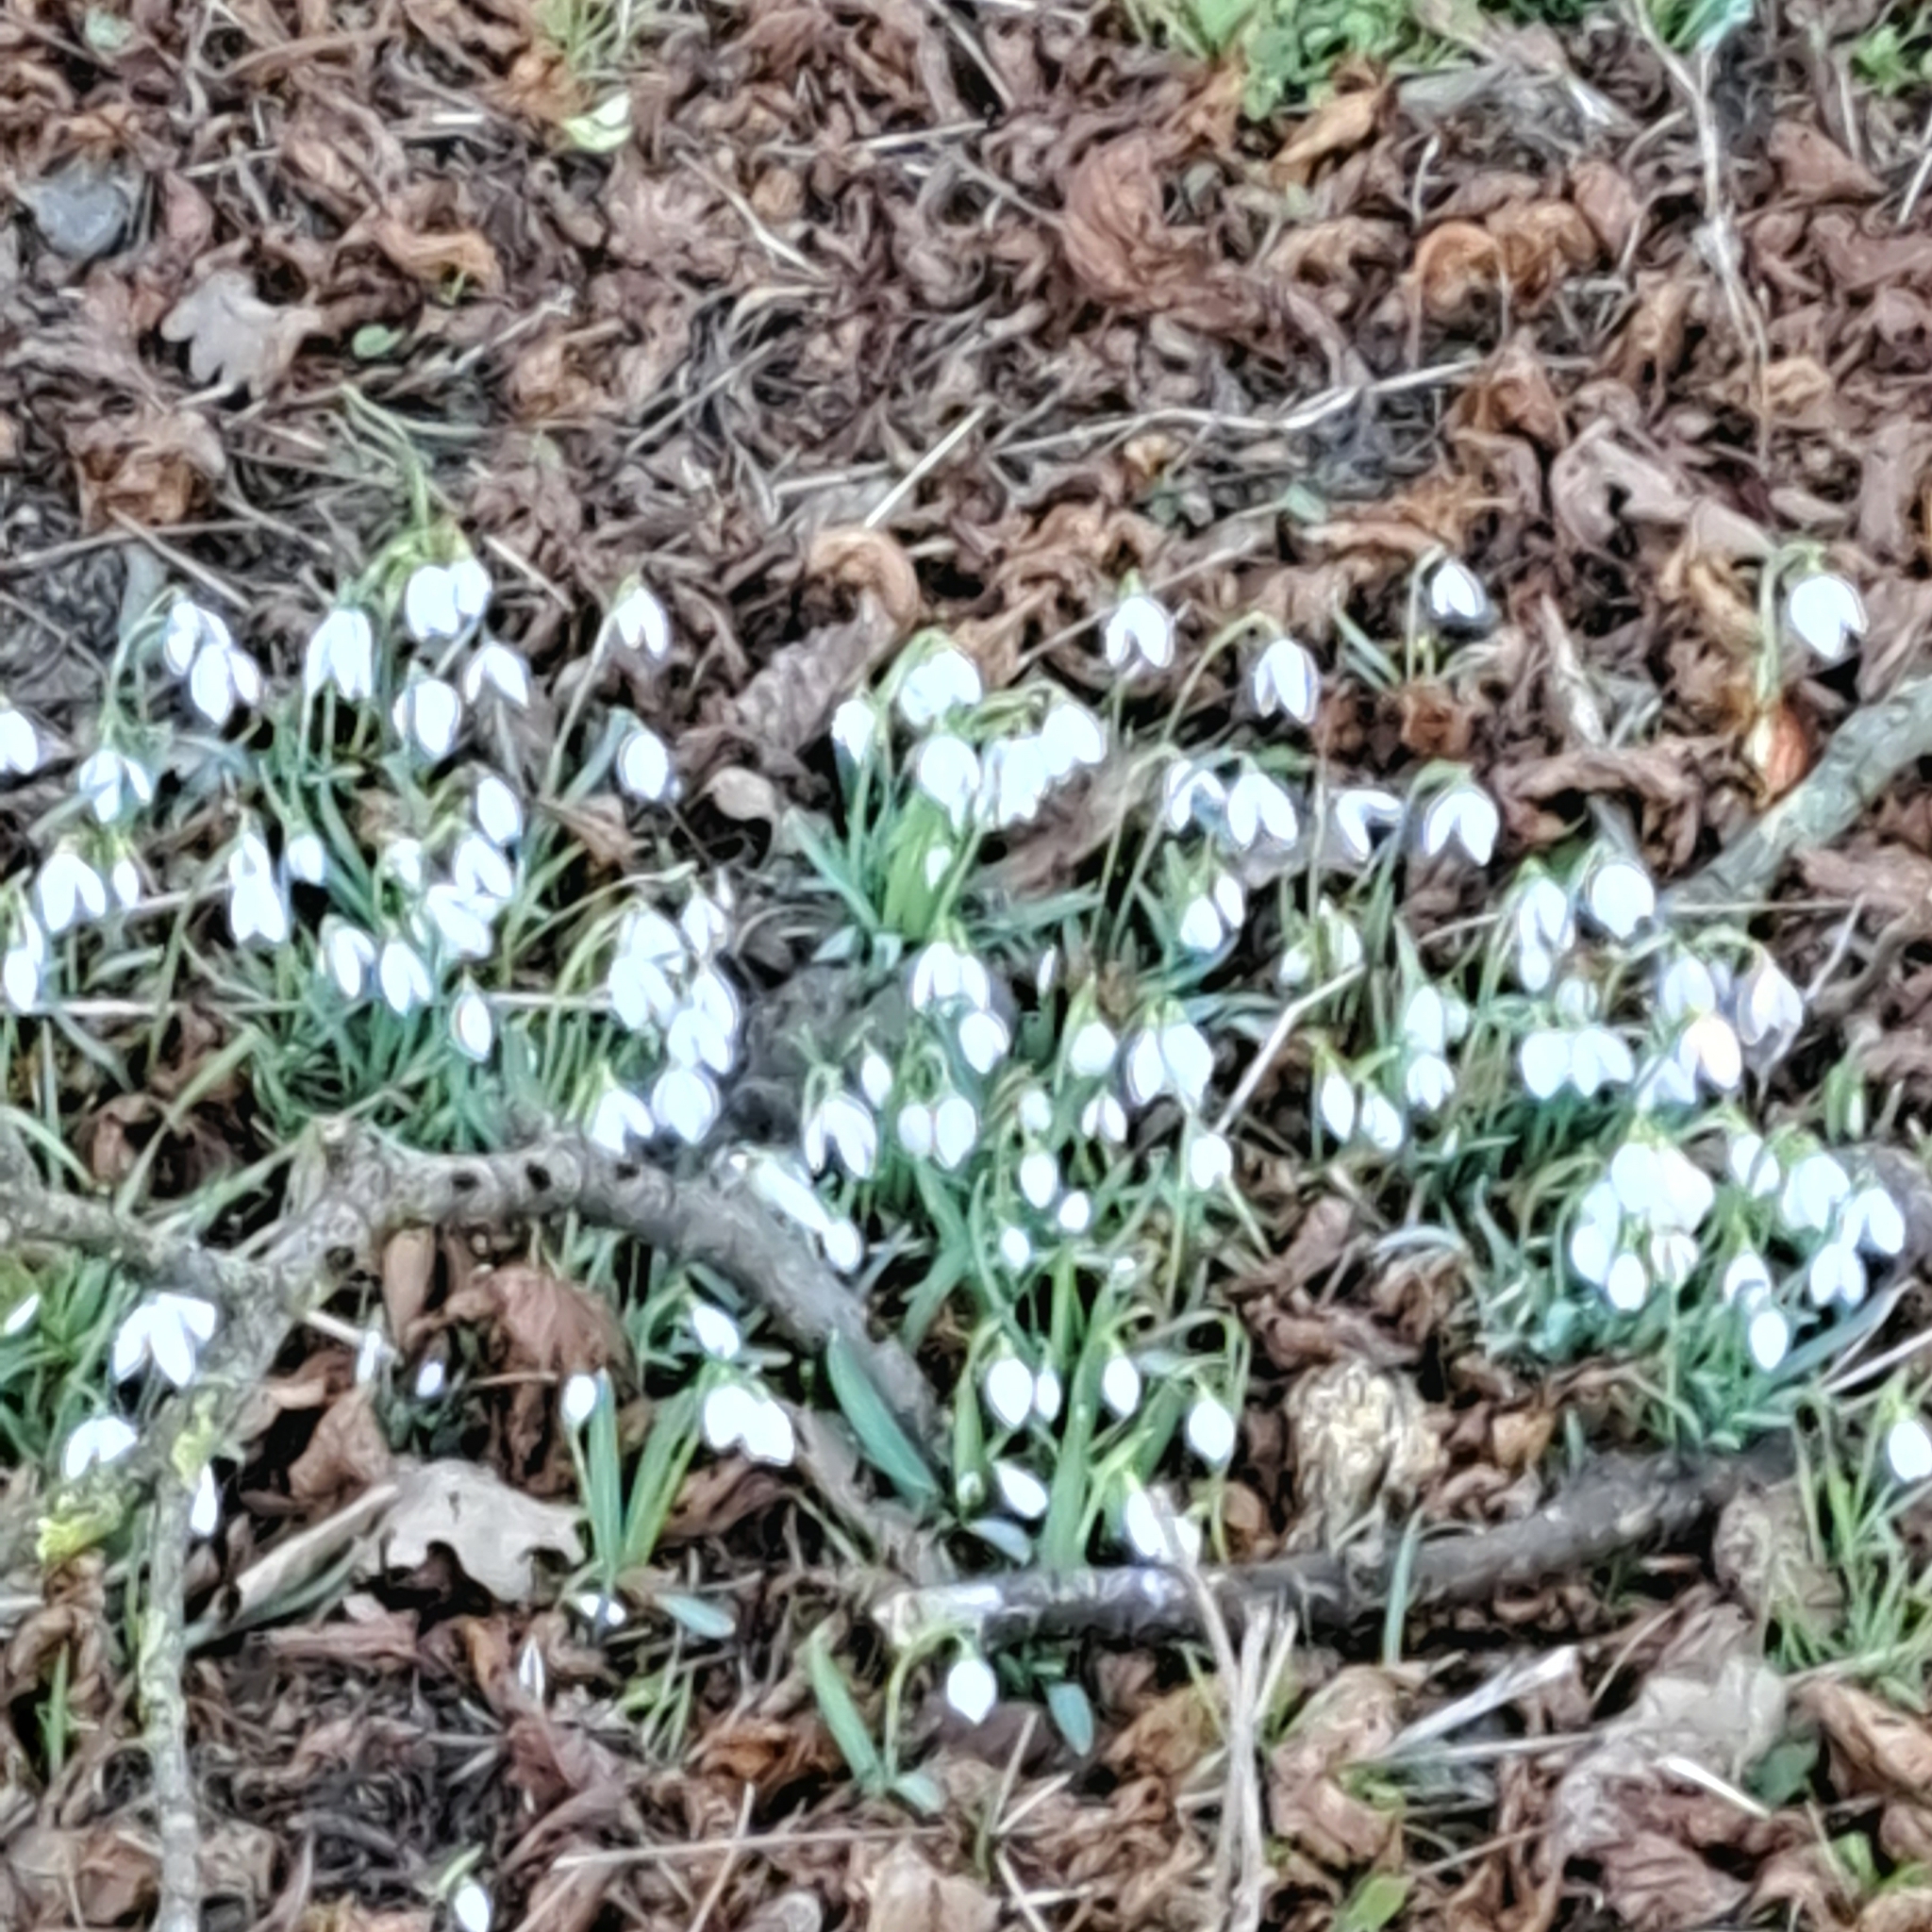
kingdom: Plantae
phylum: Tracheophyta
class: Liliopsida
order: Asparagales
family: Amaryllidaceae
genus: Galanthus
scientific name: Galanthus nivalis
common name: Snowdrop
